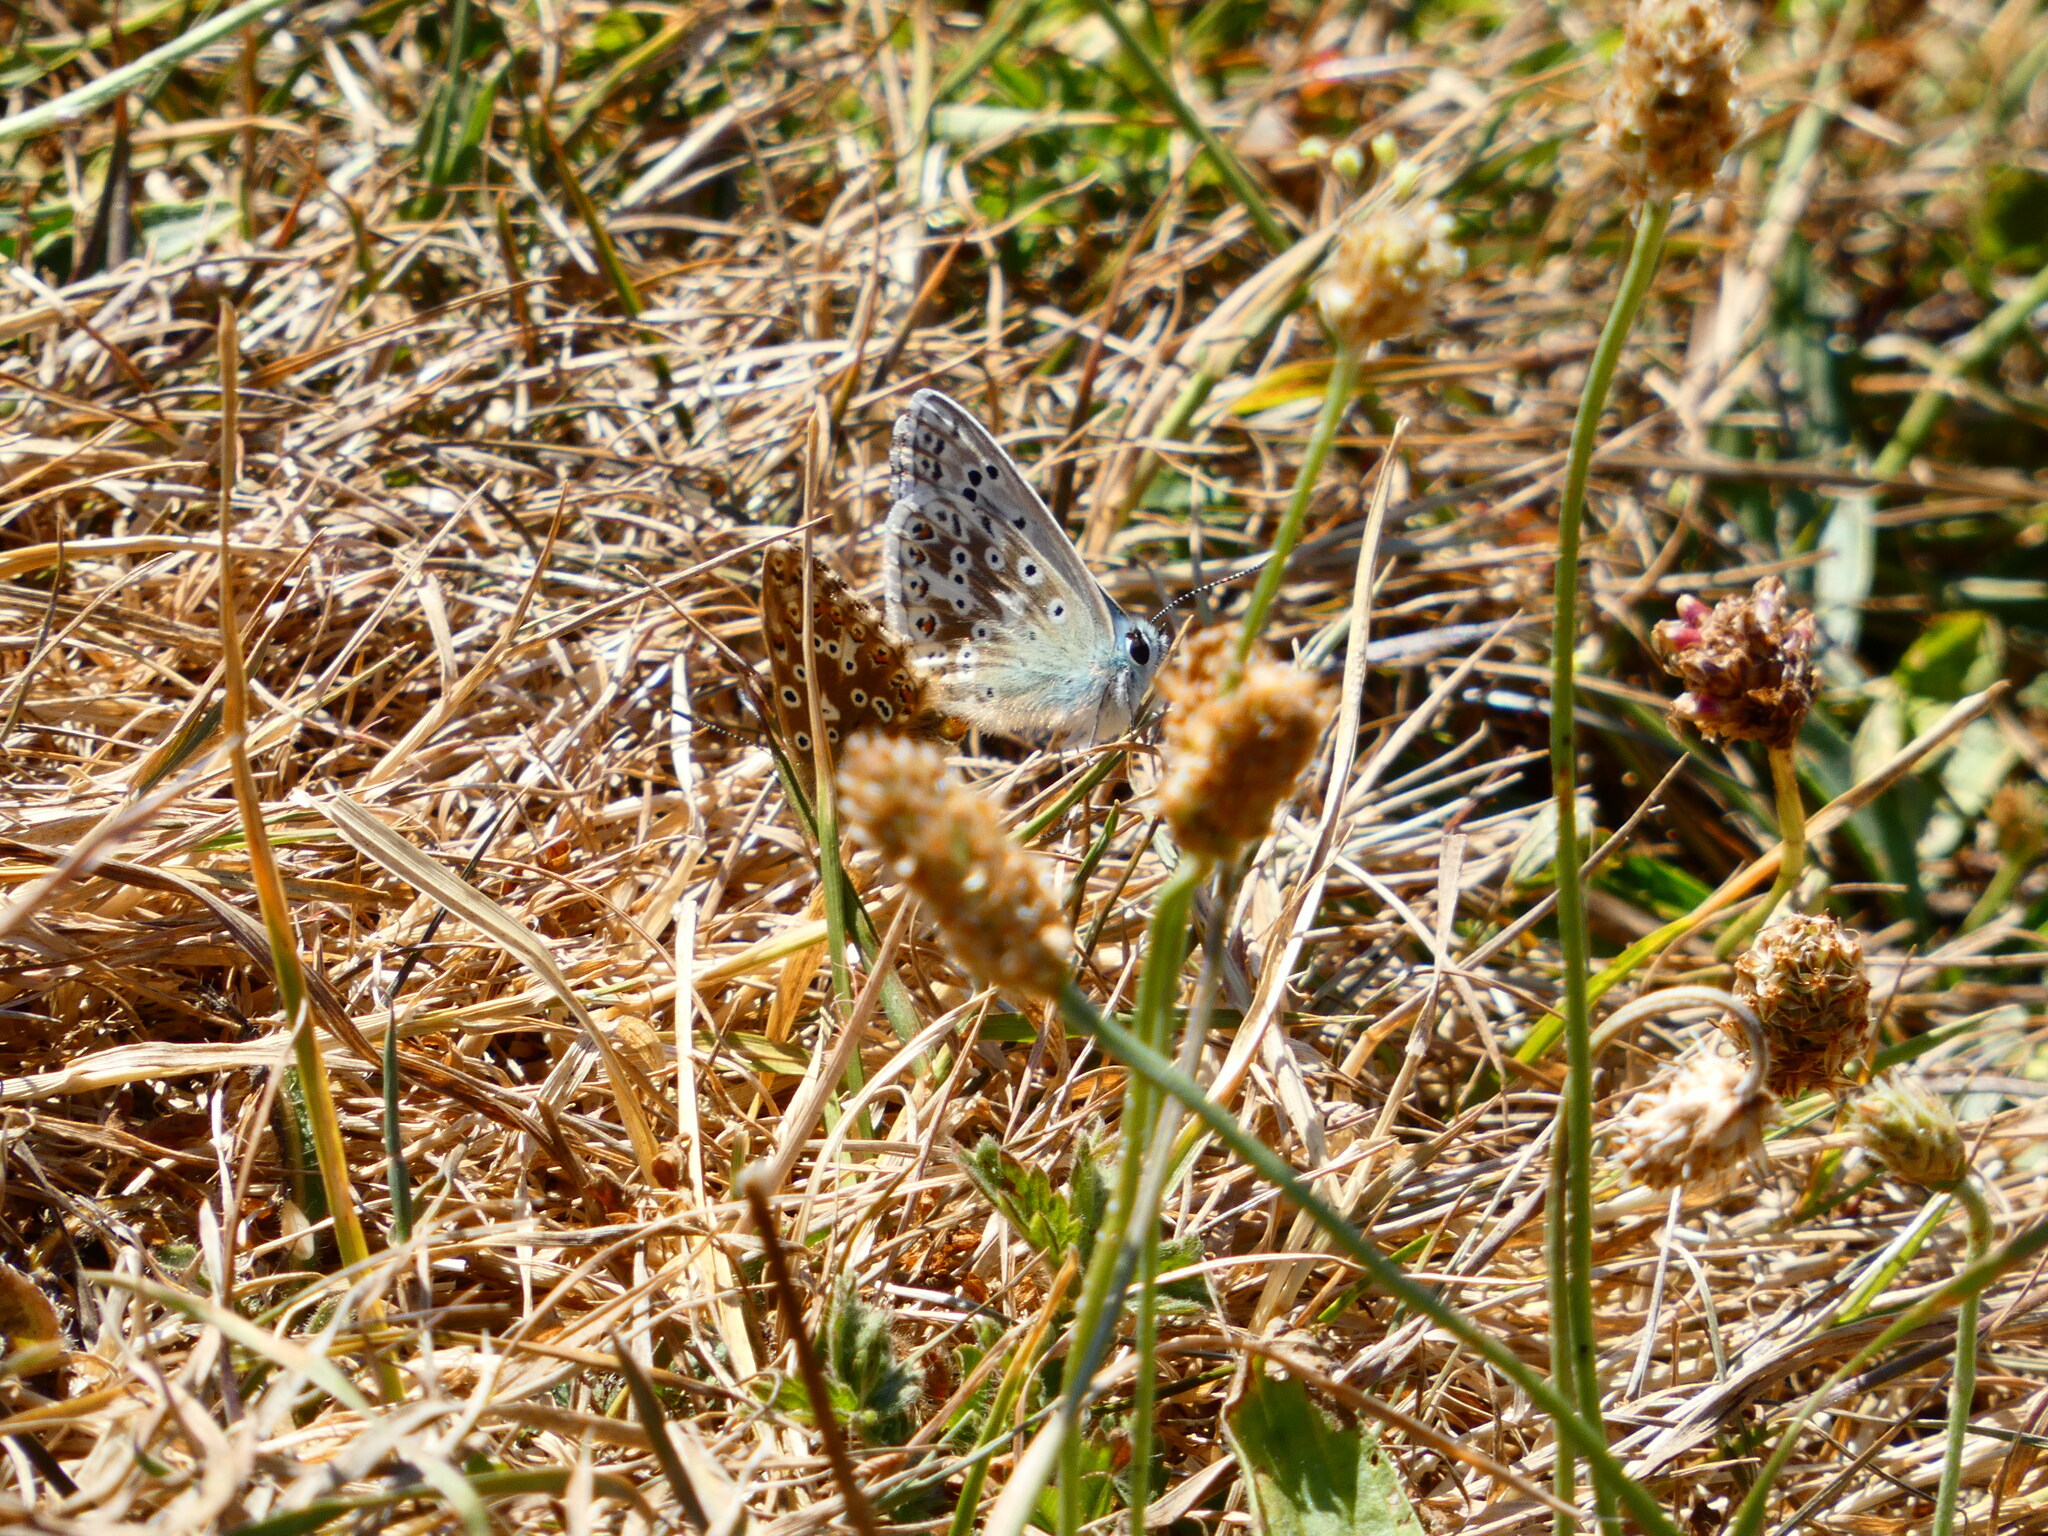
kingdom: Animalia
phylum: Arthropoda
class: Insecta
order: Lepidoptera
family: Lycaenidae
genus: Lysandra
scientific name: Lysandra coridon
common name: Chalkhill blue
